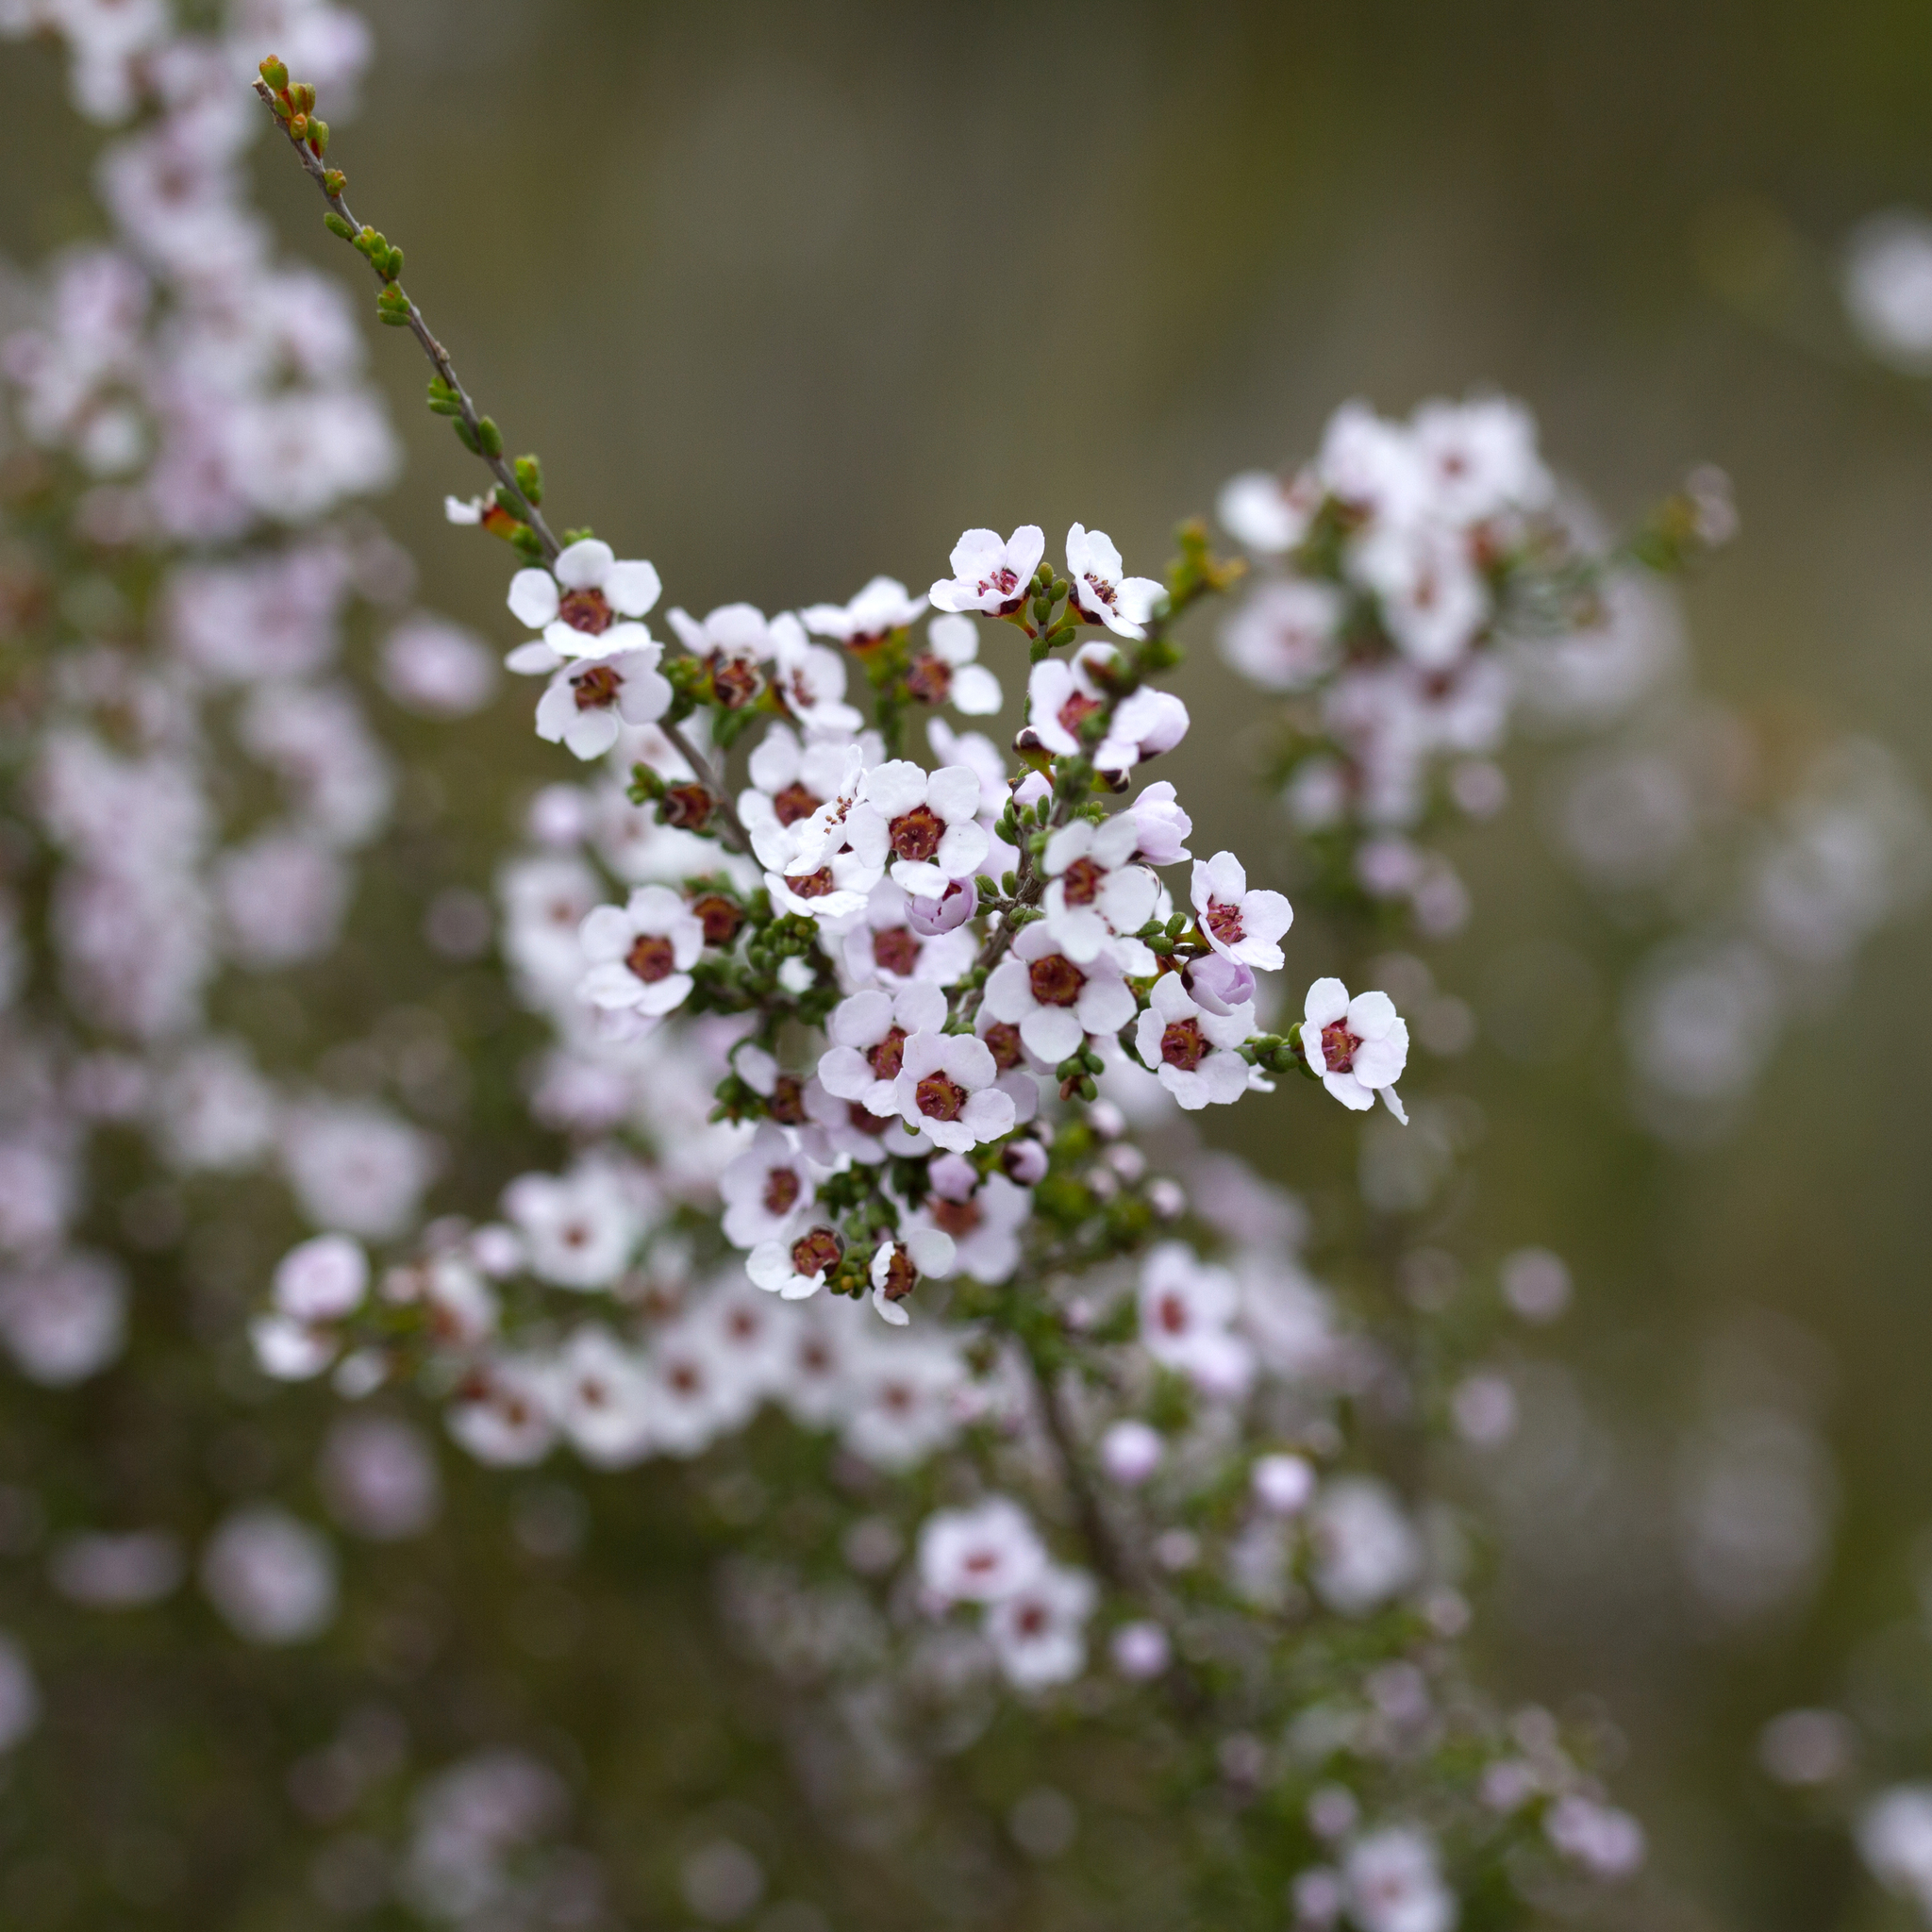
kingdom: Plantae
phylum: Tracheophyta
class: Magnoliopsida
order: Myrtales
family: Myrtaceae
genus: Rinzia
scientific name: Rinzia orientalis
